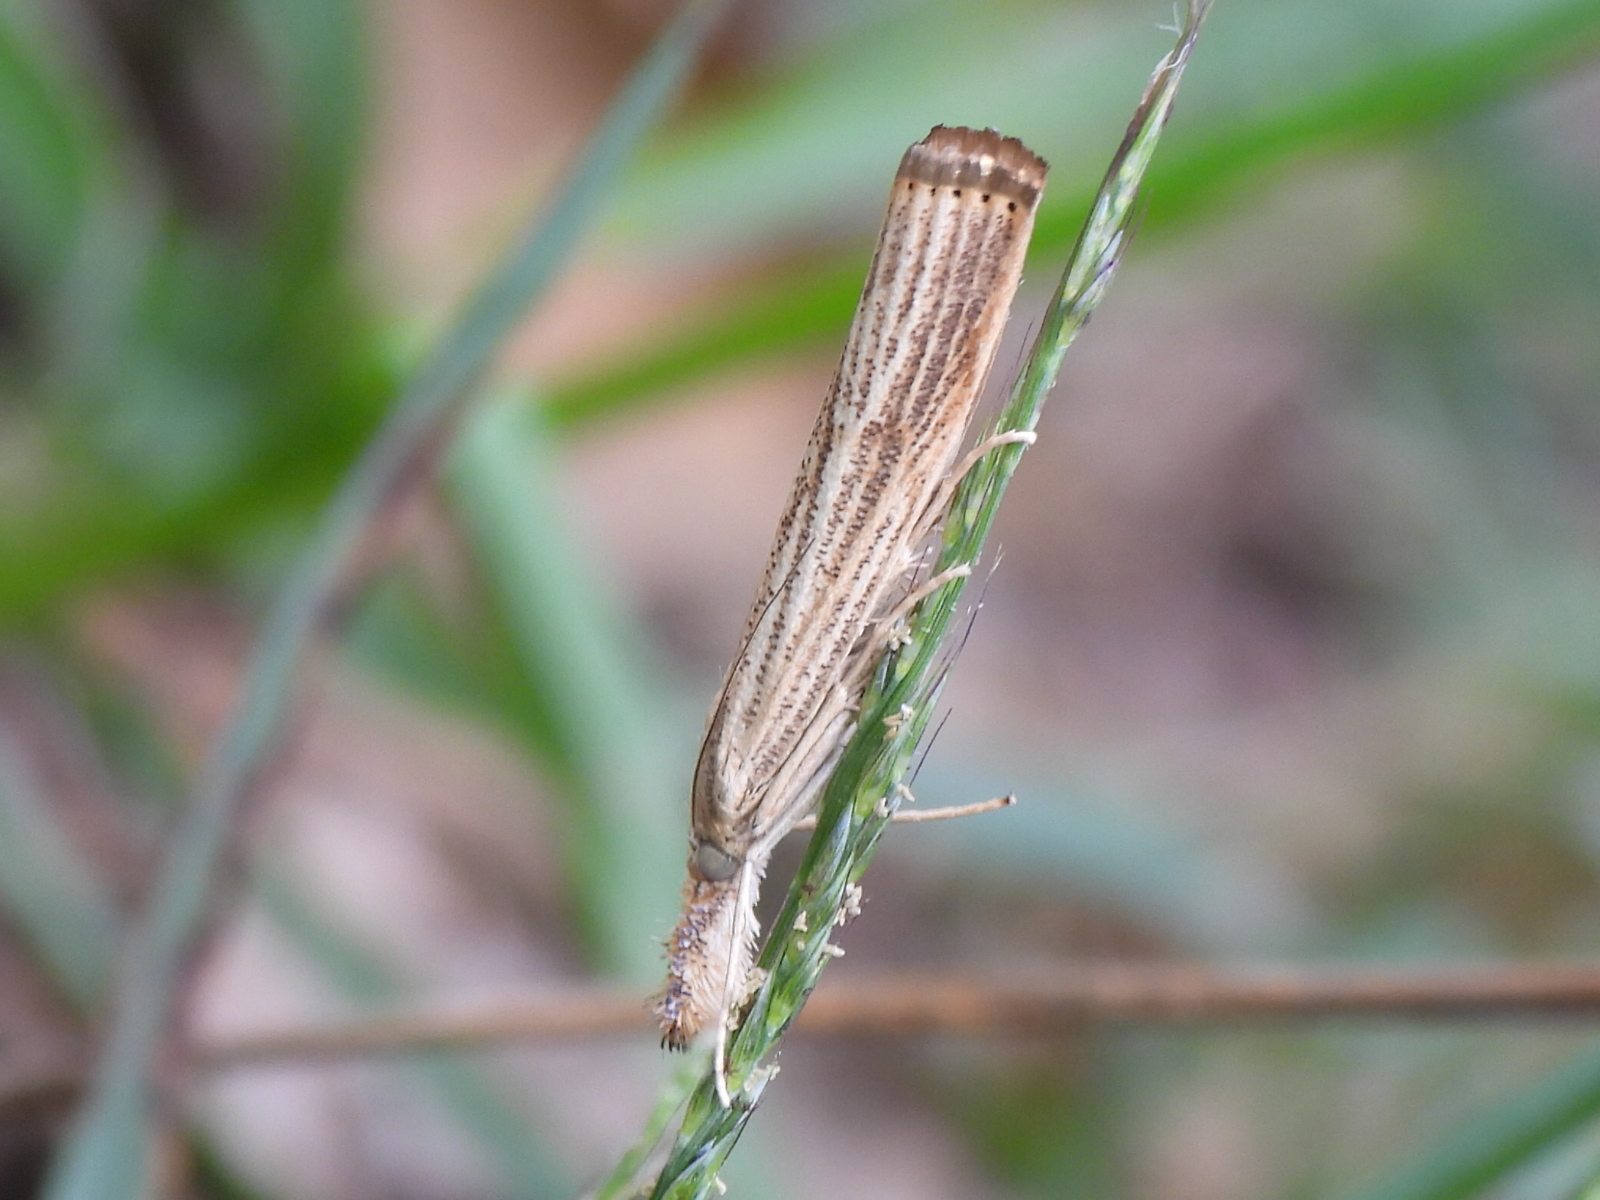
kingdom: Animalia
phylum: Arthropoda
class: Insecta
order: Lepidoptera
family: Crambidae
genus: Agriphila
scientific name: Agriphila vulgivagellus
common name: Vagabond crambus moth
